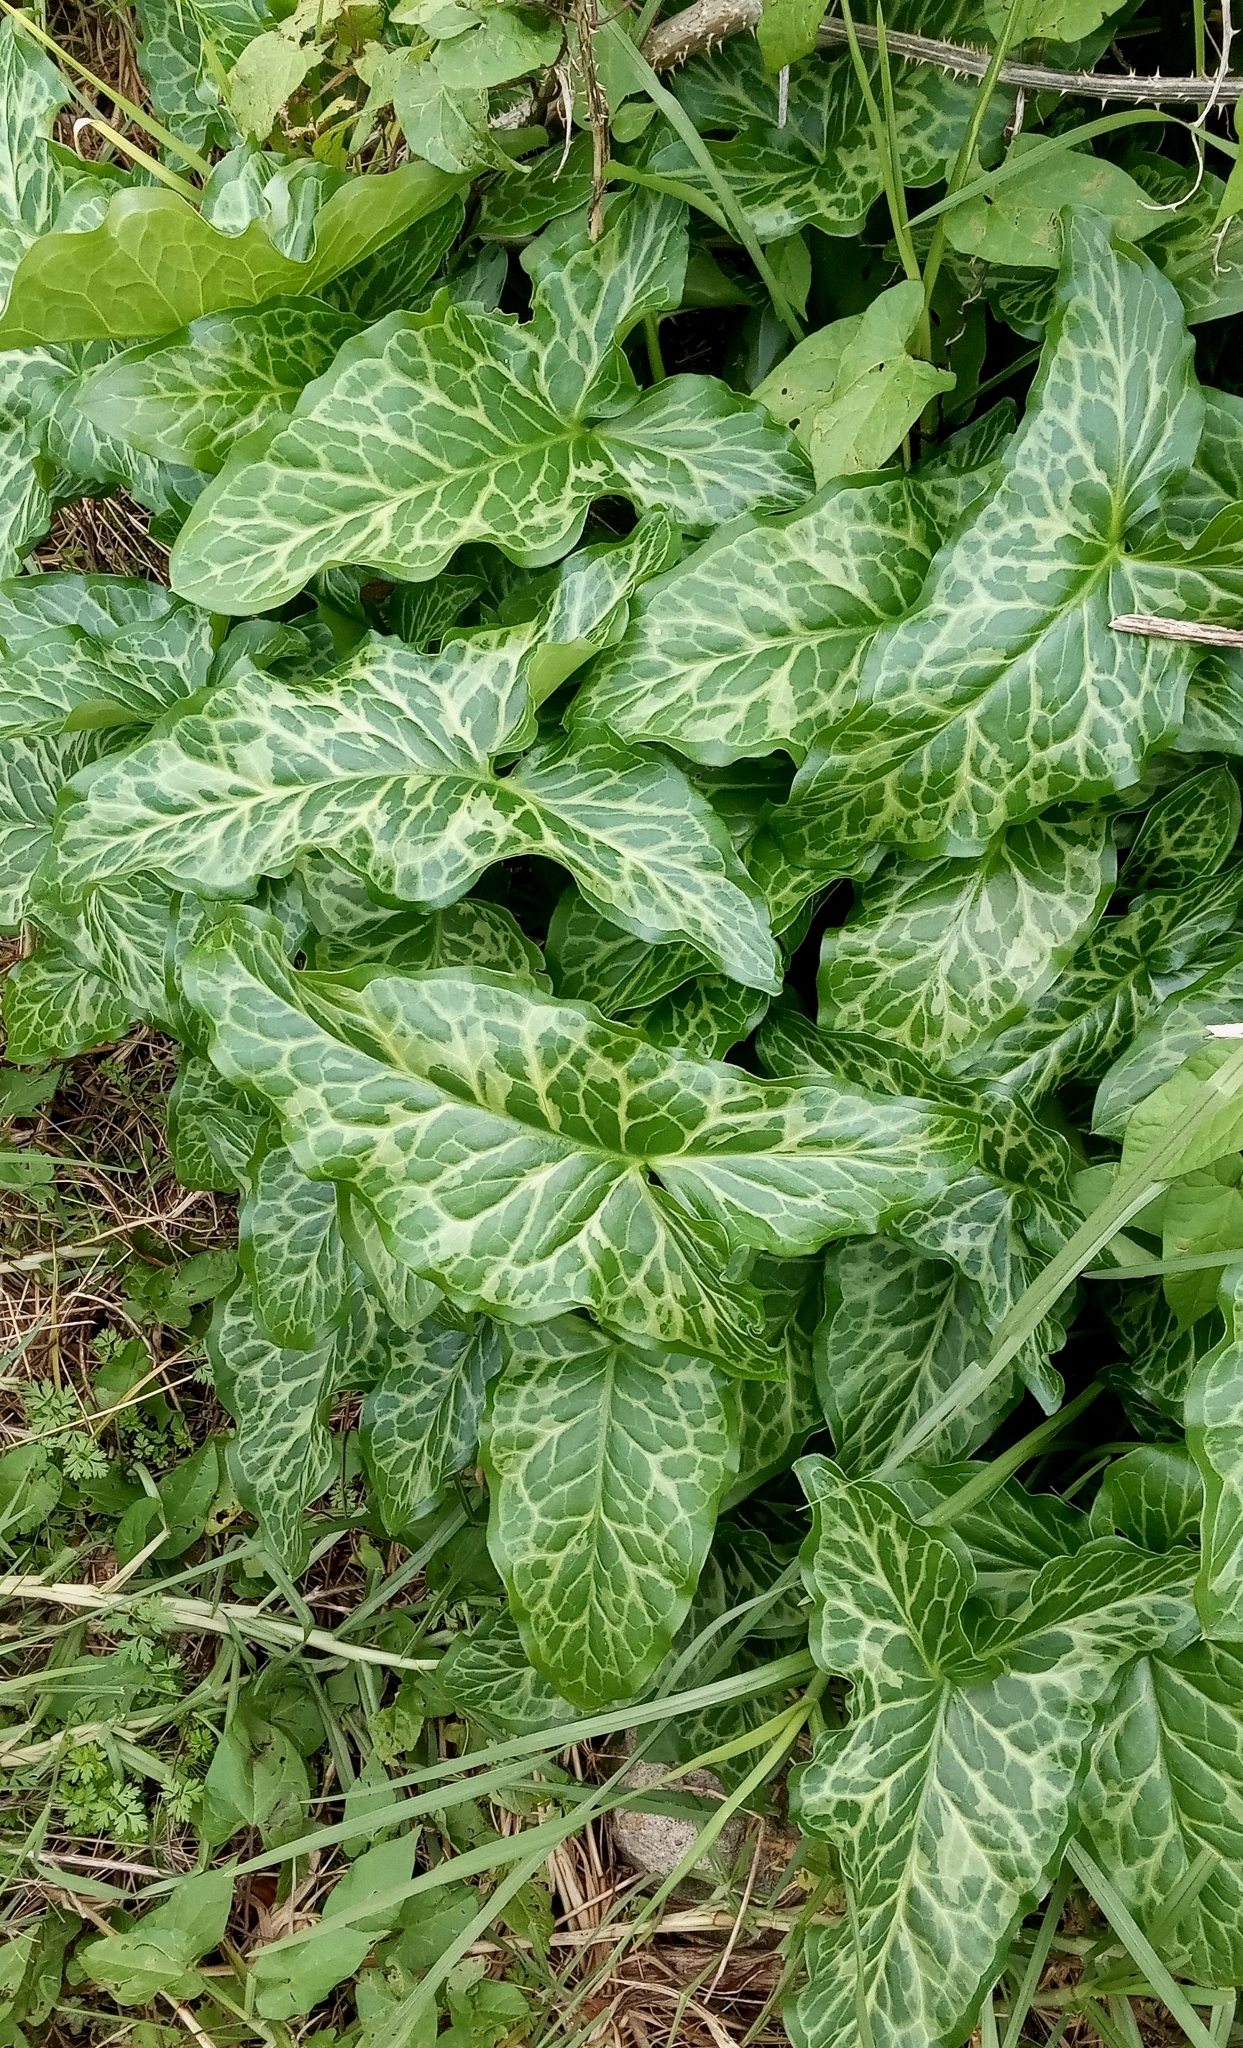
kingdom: Plantae
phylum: Tracheophyta
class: Liliopsida
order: Alismatales
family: Araceae
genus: Arum
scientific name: Arum italicum
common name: Italian lords-and-ladies
